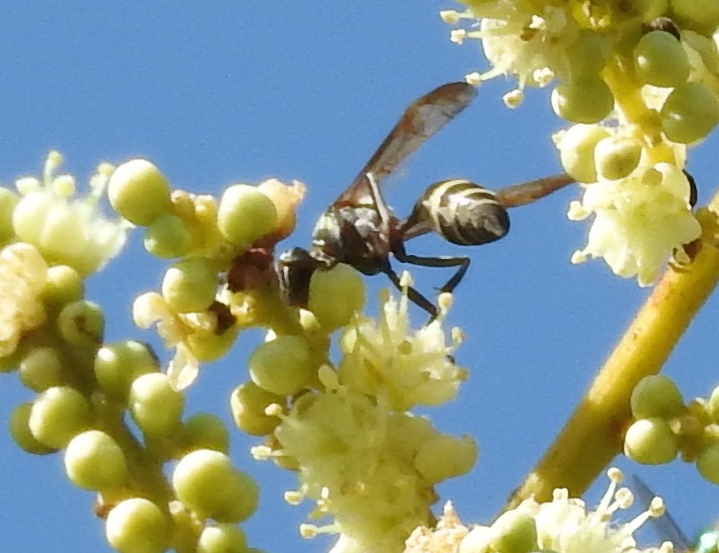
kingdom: Animalia
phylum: Arthropoda
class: Insecta
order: Hymenoptera
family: Vespidae
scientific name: Vespidae
